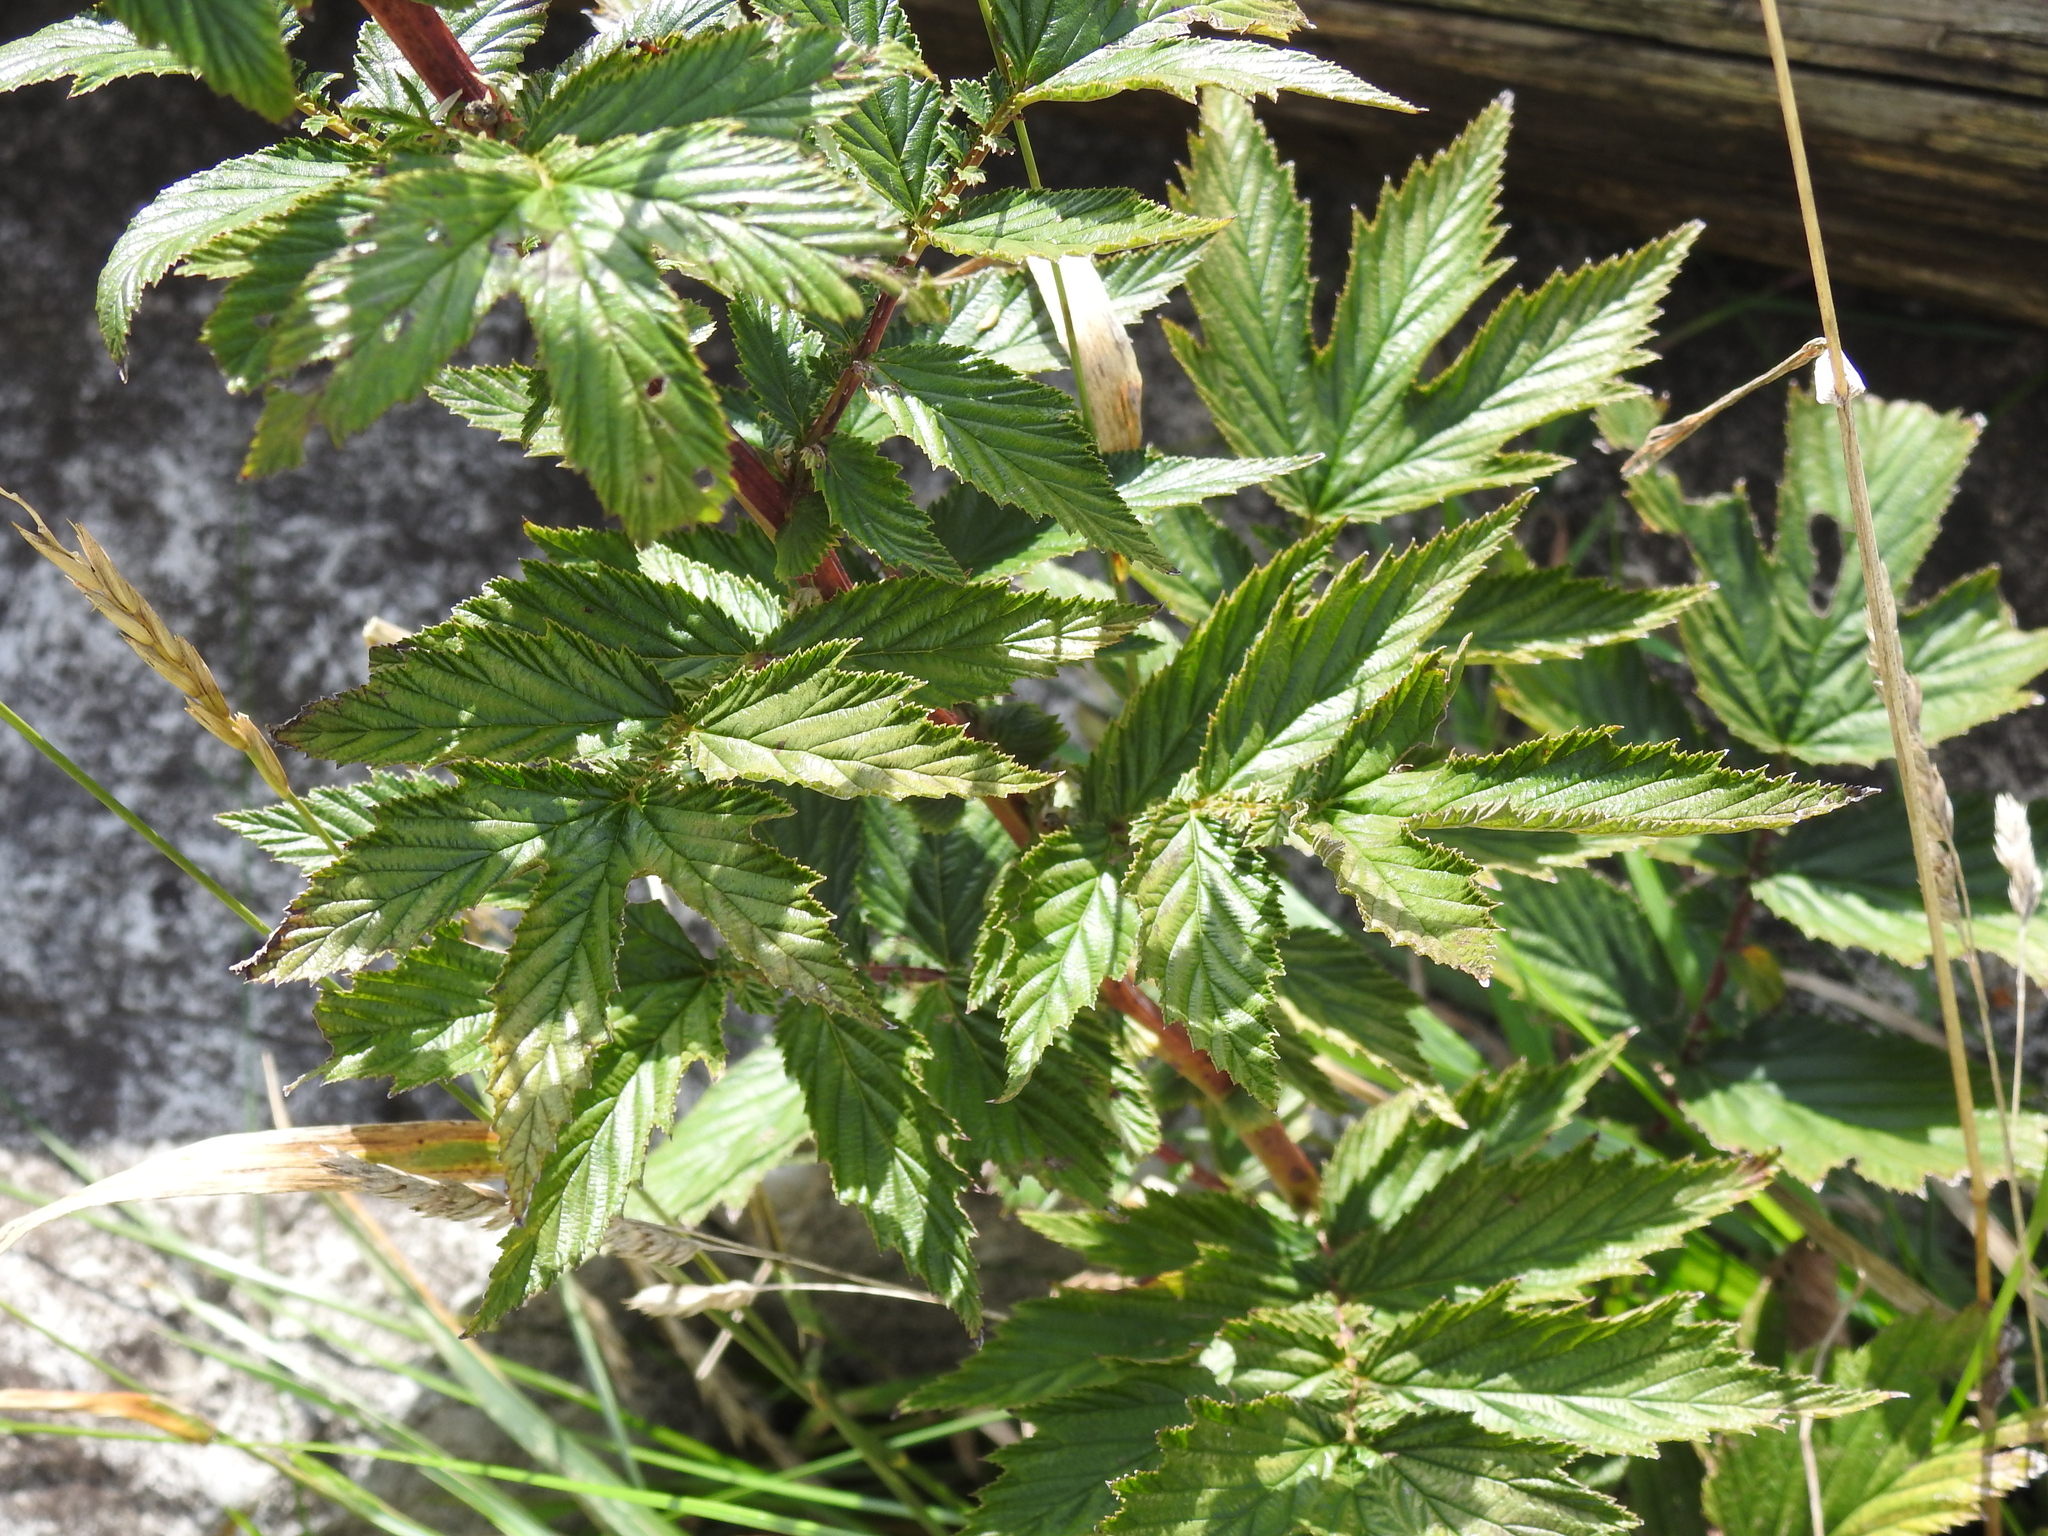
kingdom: Plantae
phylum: Tracheophyta
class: Magnoliopsida
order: Rosales
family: Rosaceae
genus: Filipendula
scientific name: Filipendula ulmaria
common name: Meadowsweet
